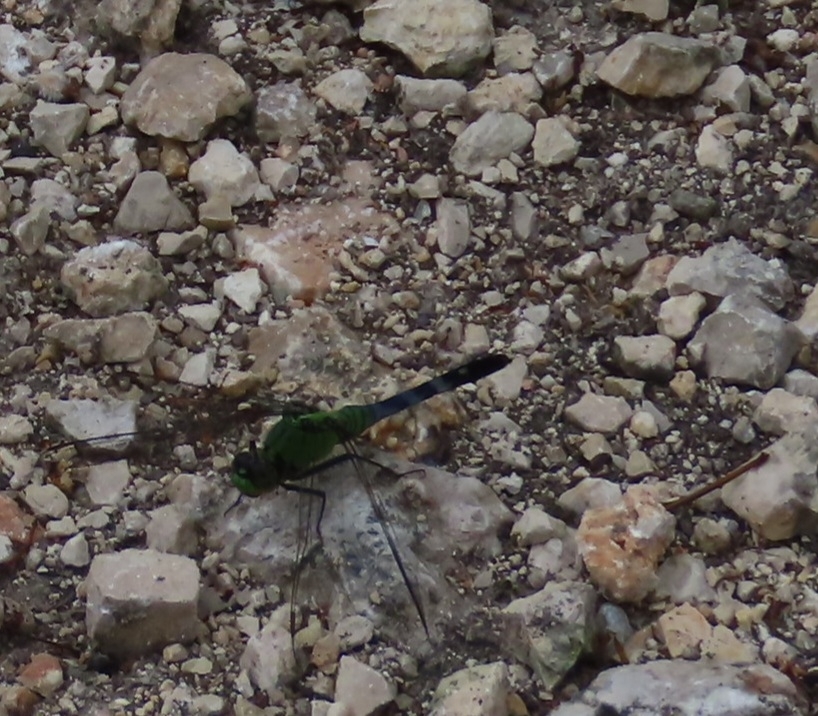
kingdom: Animalia
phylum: Arthropoda
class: Insecta
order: Odonata
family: Libellulidae
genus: Erythemis
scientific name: Erythemis simplicicollis
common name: Eastern pondhawk
